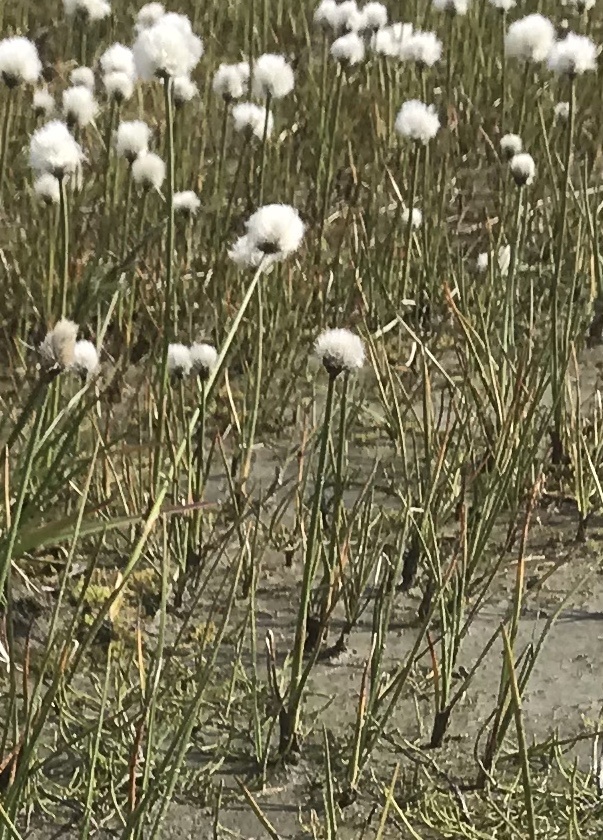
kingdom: Plantae
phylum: Tracheophyta
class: Liliopsida
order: Poales
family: Cyperaceae
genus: Eriophorum
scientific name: Eriophorum scheuchzeri
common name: Scheuchzer's cottongrass
